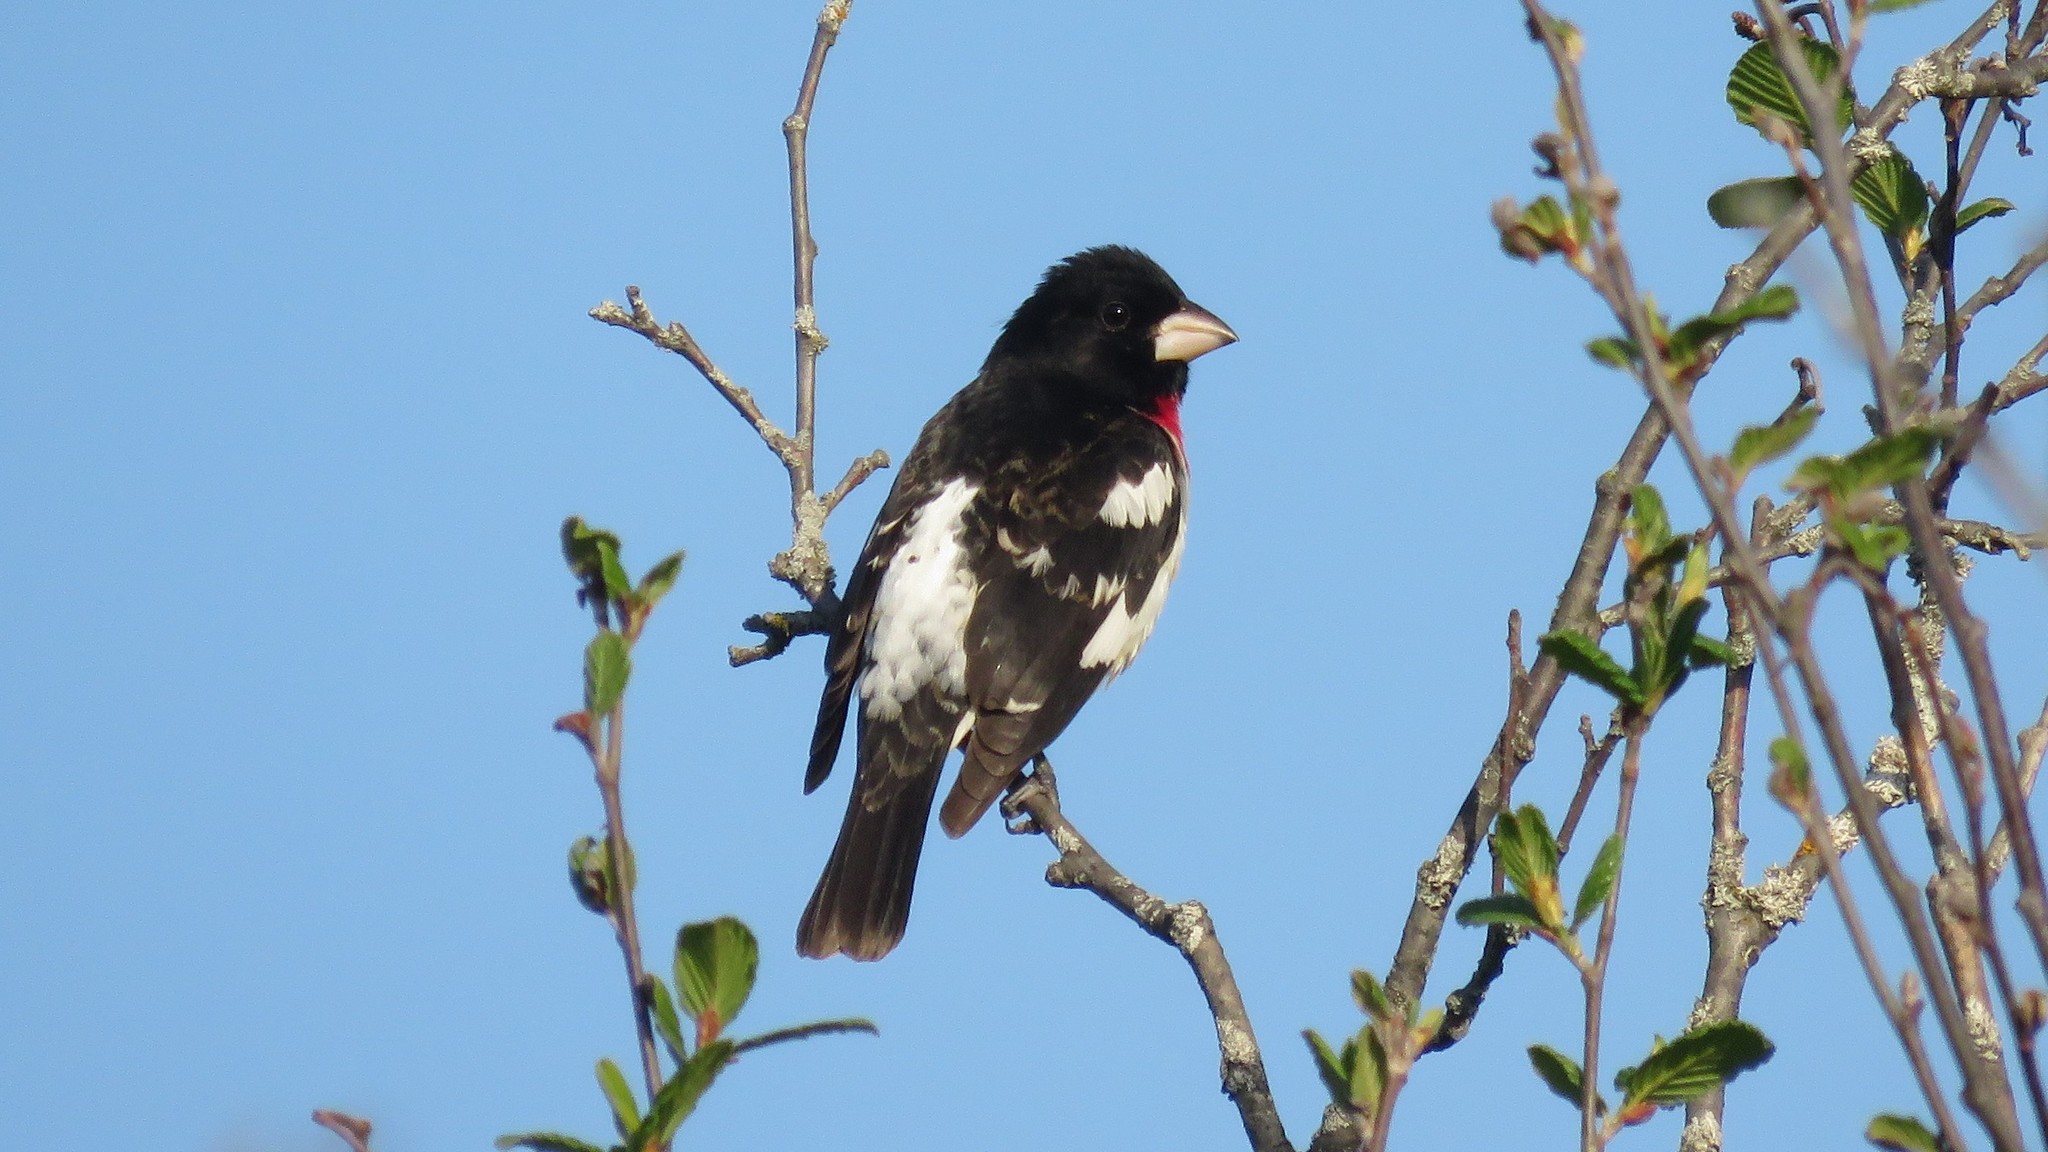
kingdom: Animalia
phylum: Chordata
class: Aves
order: Passeriformes
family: Cardinalidae
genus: Pheucticus
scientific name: Pheucticus ludovicianus
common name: Rose-breasted grosbeak
